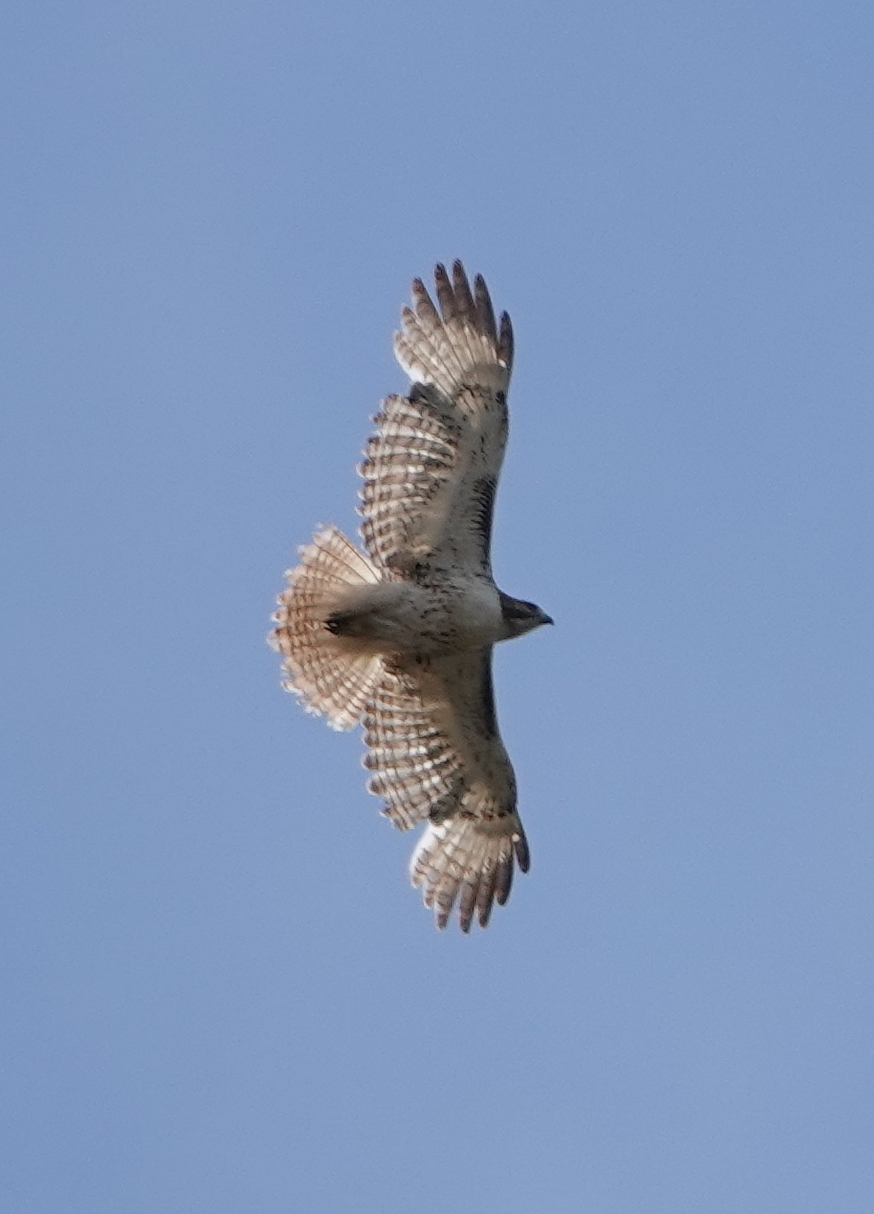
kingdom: Animalia
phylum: Chordata
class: Aves
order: Accipitriformes
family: Accipitridae
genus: Buteo
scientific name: Buteo jamaicensis
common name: Red-tailed hawk
